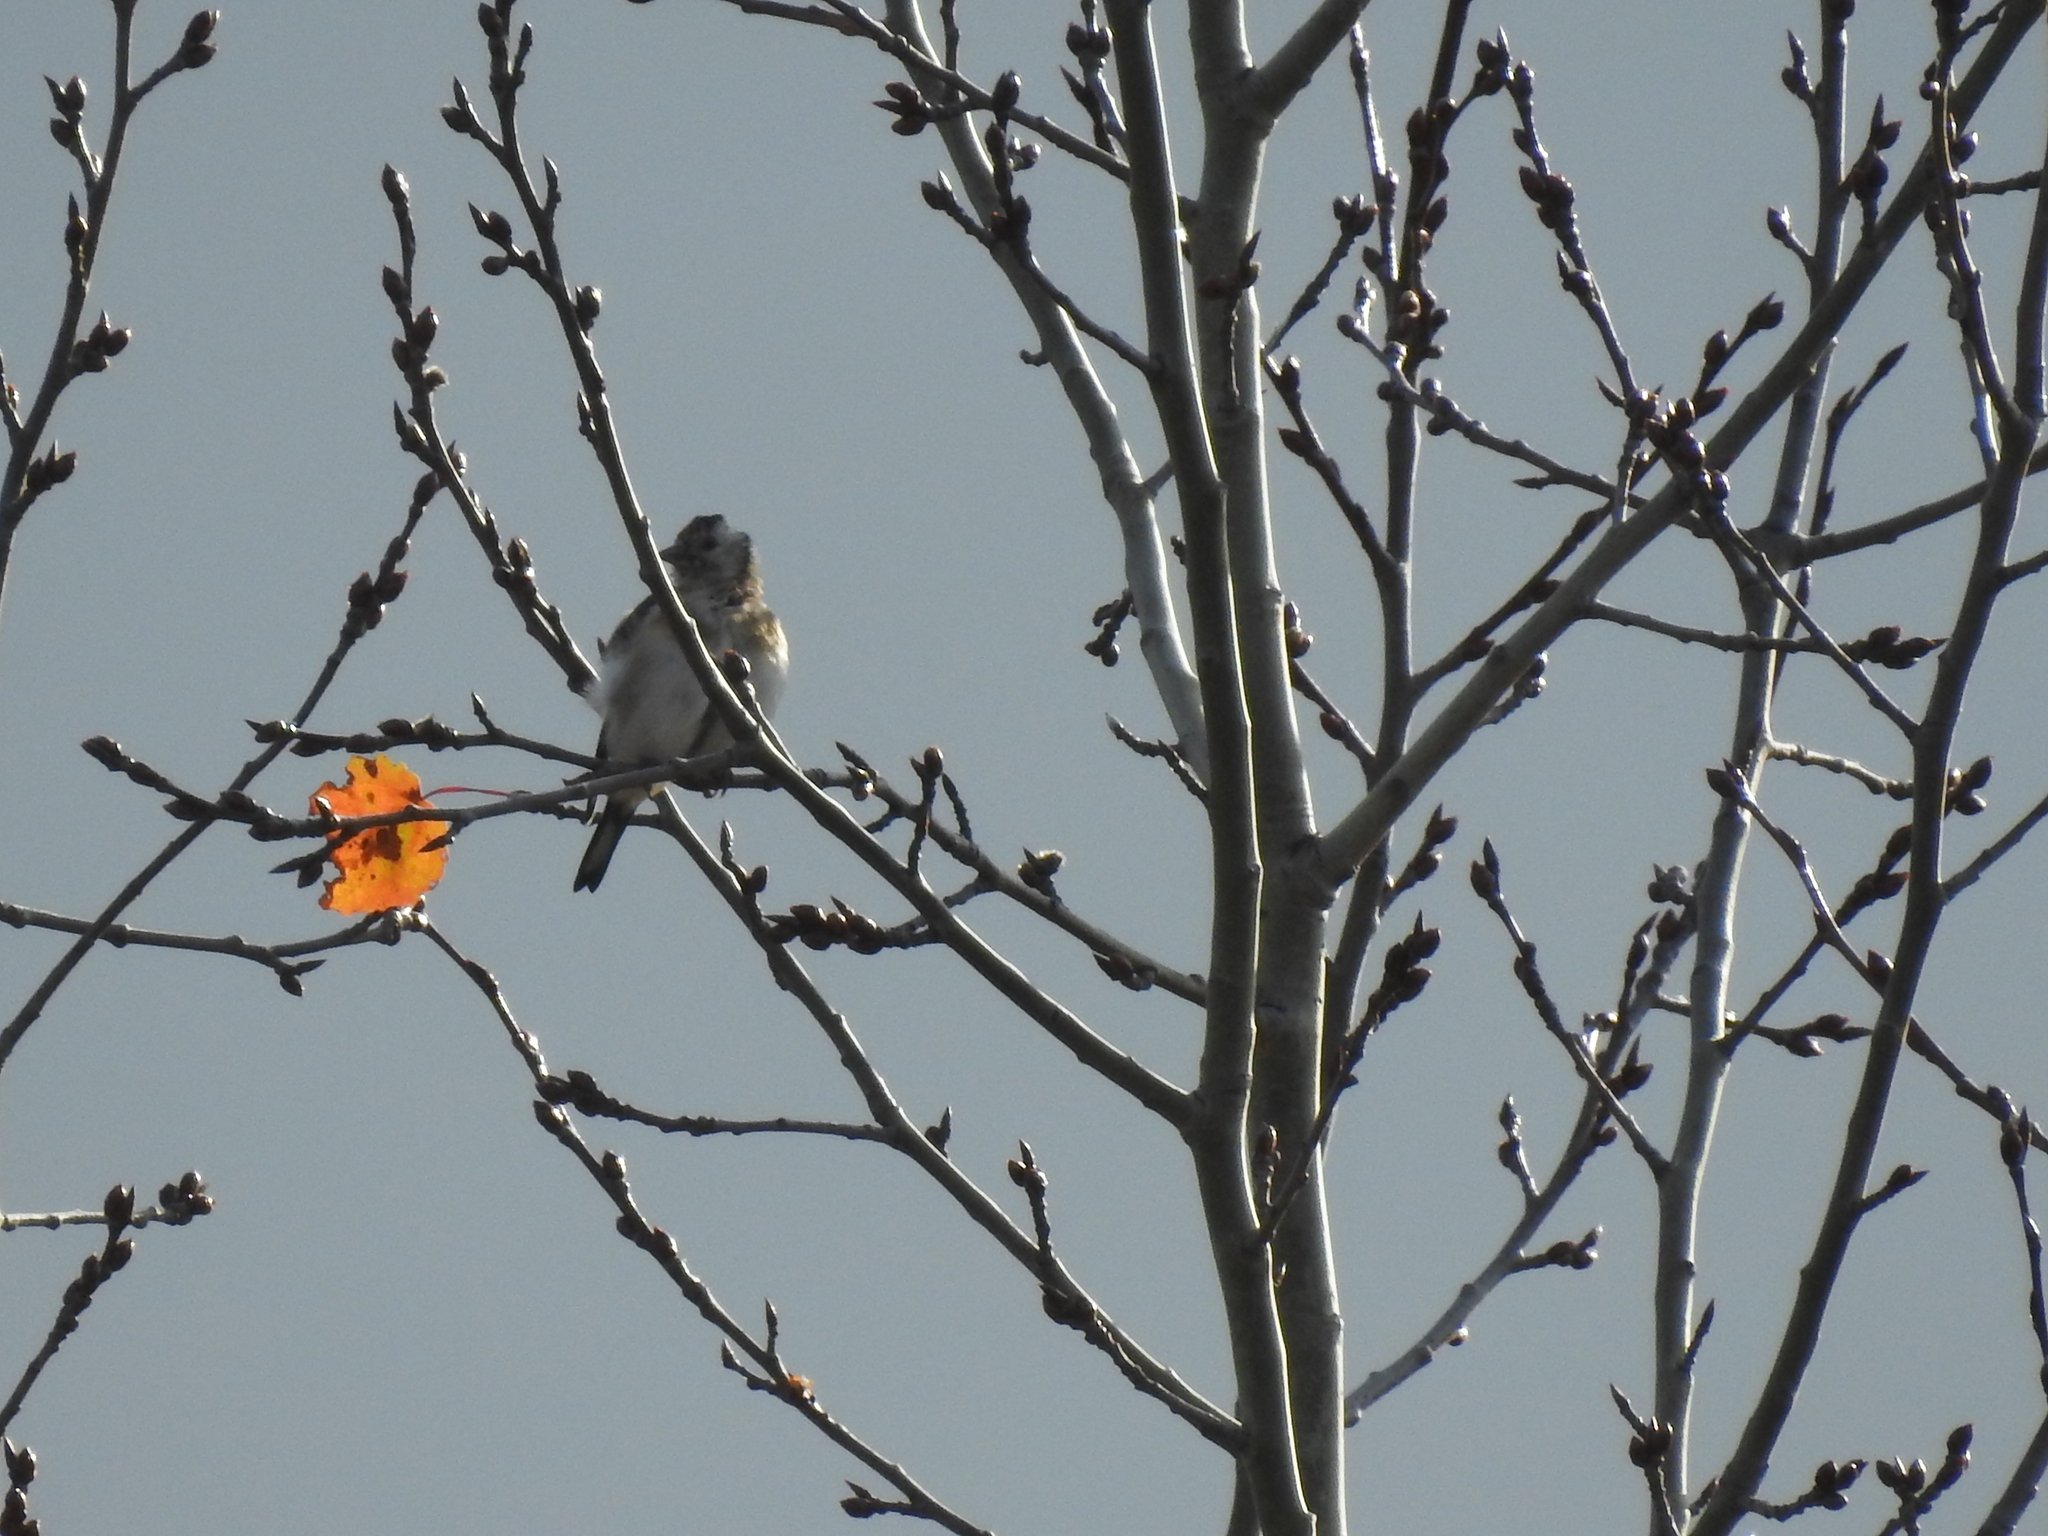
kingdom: Animalia
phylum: Chordata
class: Aves
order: Passeriformes
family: Fringillidae
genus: Carduelis
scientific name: Carduelis carduelis
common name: European goldfinch
